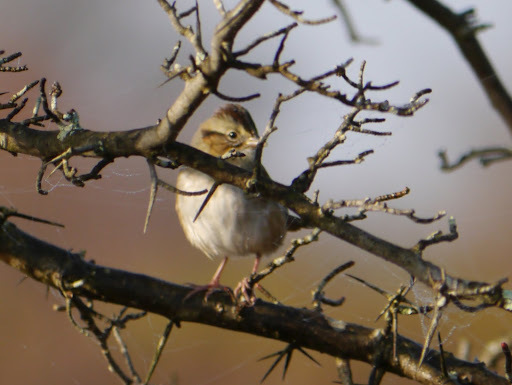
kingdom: Animalia
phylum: Chordata
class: Aves
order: Passeriformes
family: Passerellidae
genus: Melospiza
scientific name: Melospiza georgiana
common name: Swamp sparrow
